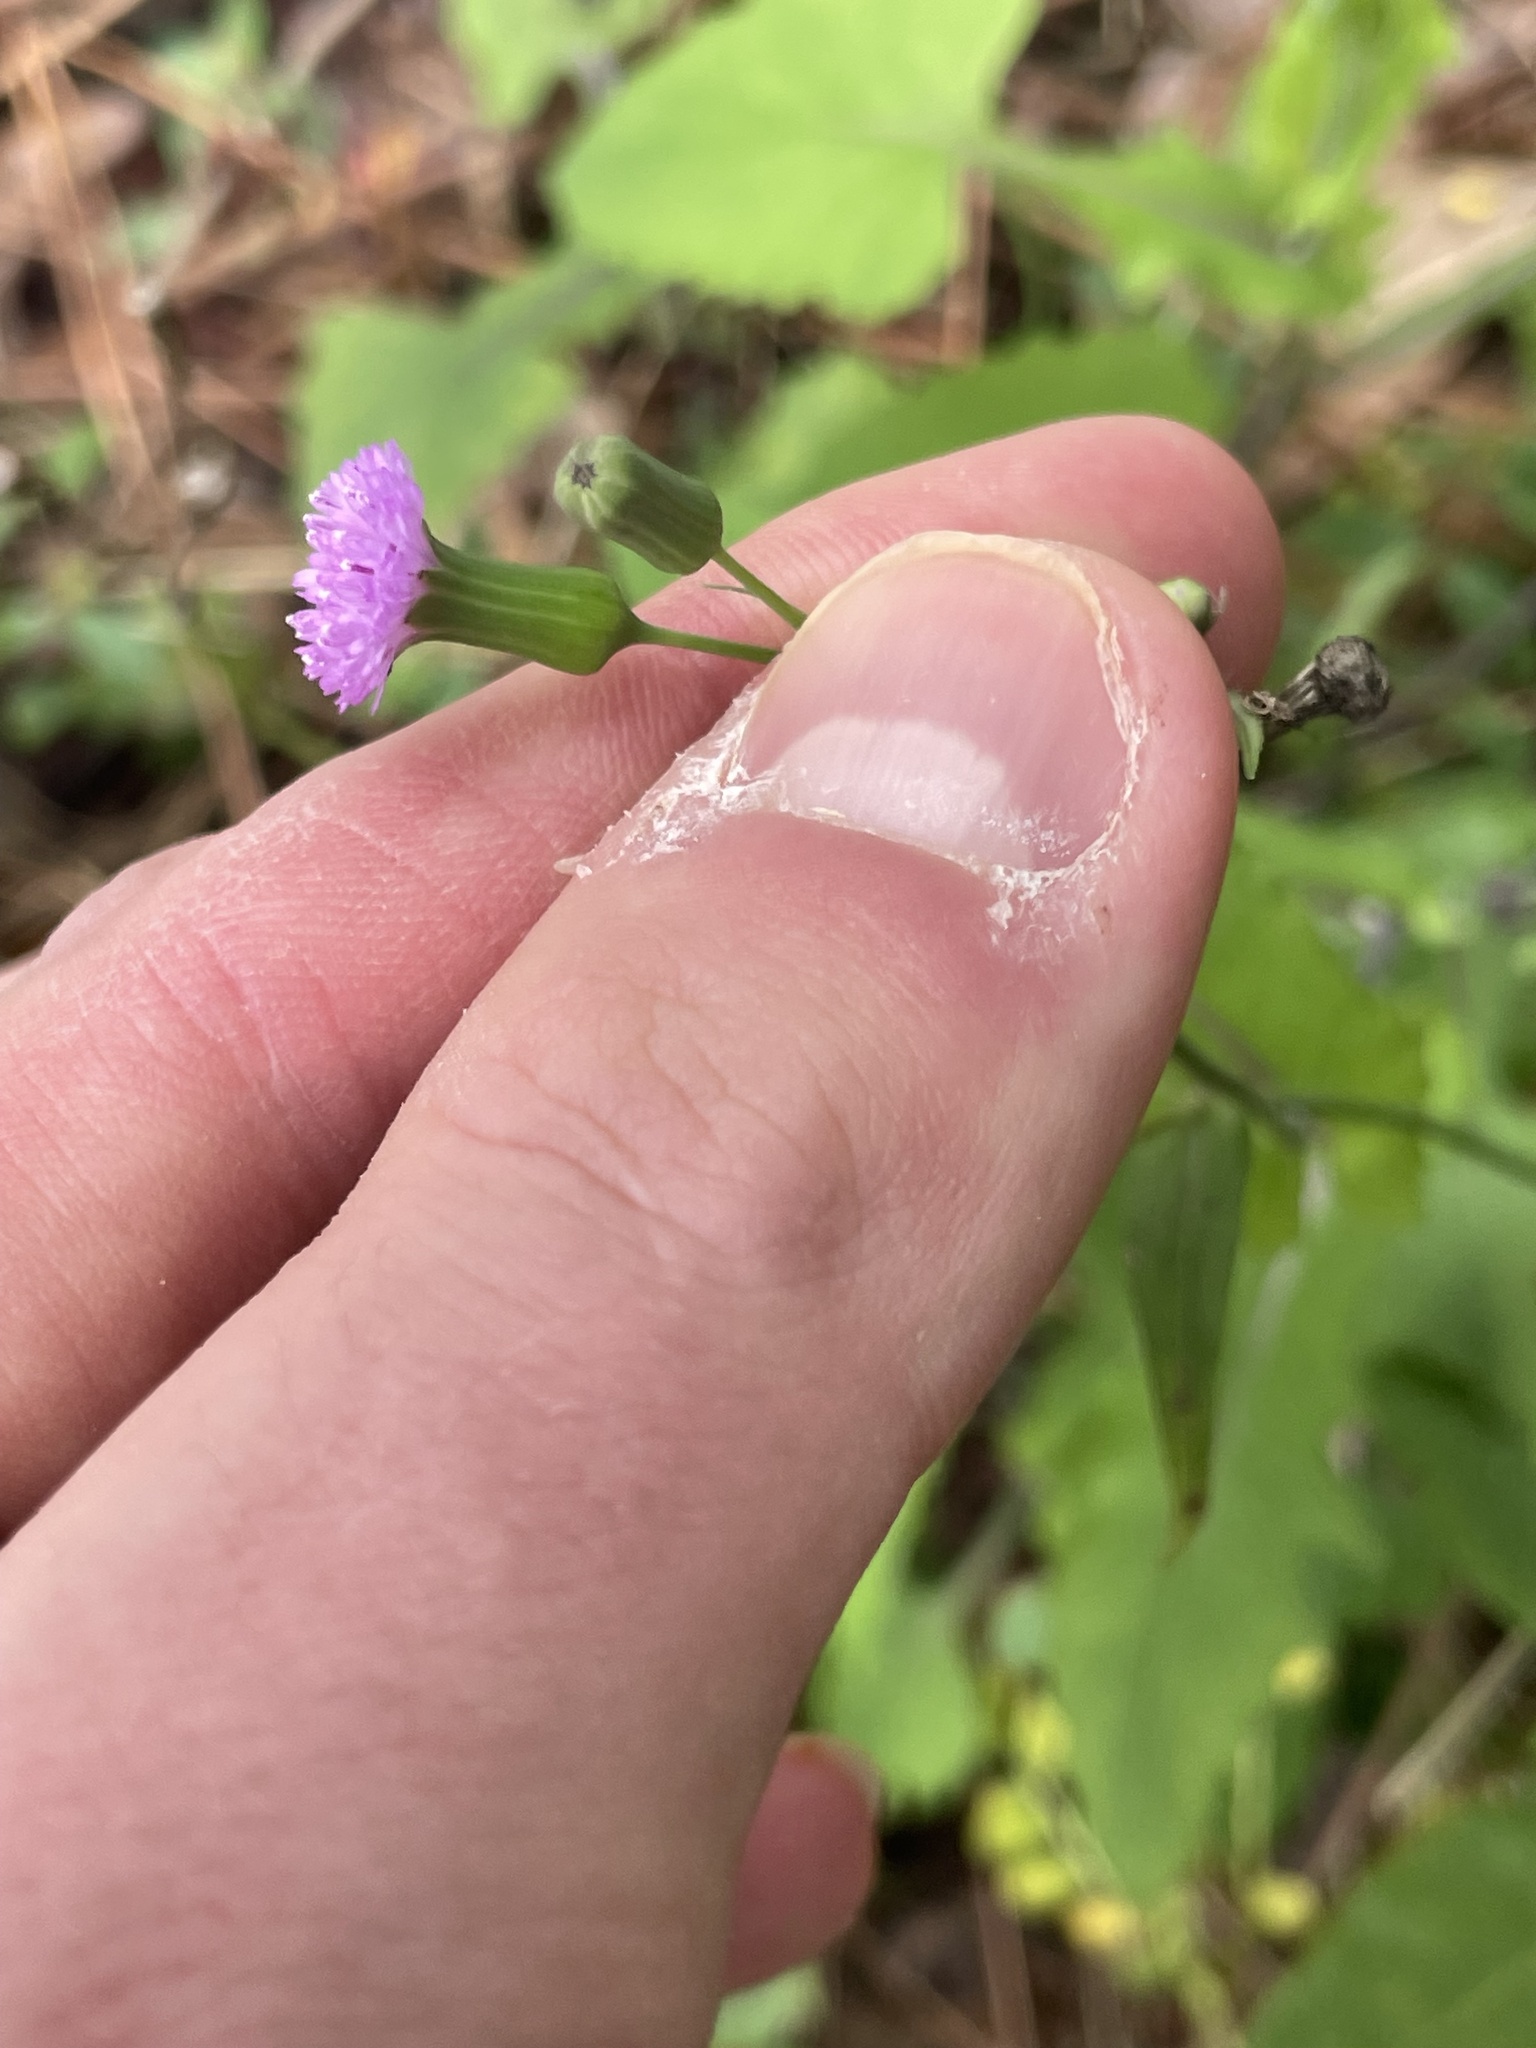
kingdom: Plantae
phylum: Tracheophyta
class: Magnoliopsida
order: Asterales
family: Asteraceae
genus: Emilia
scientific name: Emilia sonchifolia
